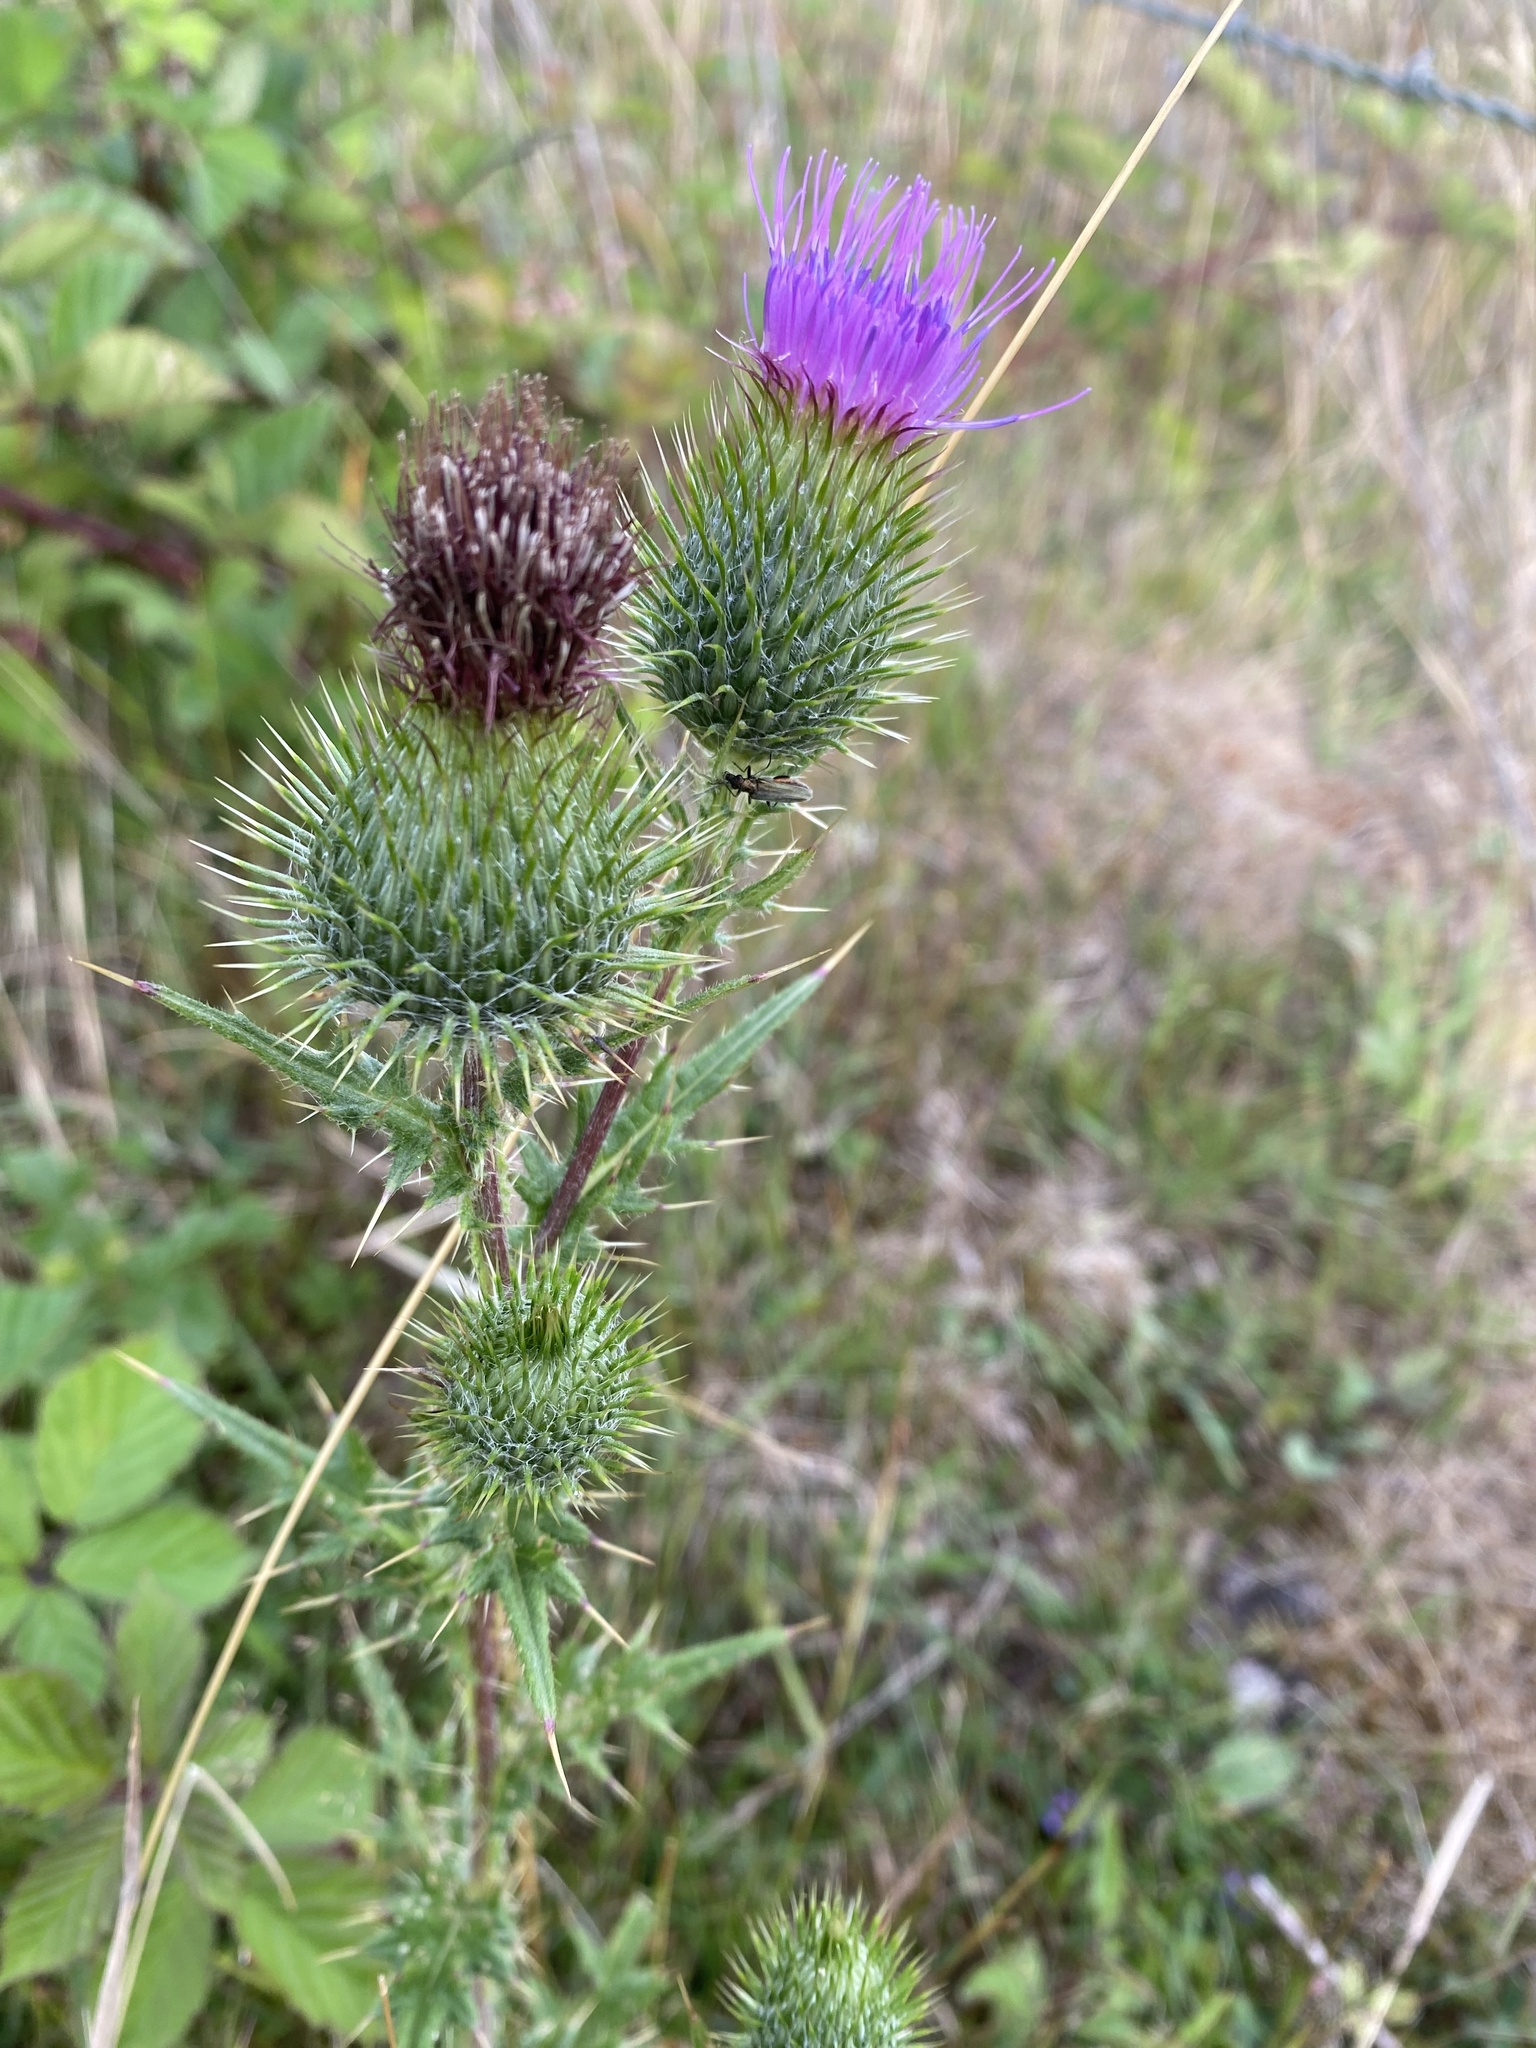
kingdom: Plantae
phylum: Tracheophyta
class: Magnoliopsida
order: Asterales
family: Asteraceae
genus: Cirsium
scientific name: Cirsium vulgare
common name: Bull thistle
